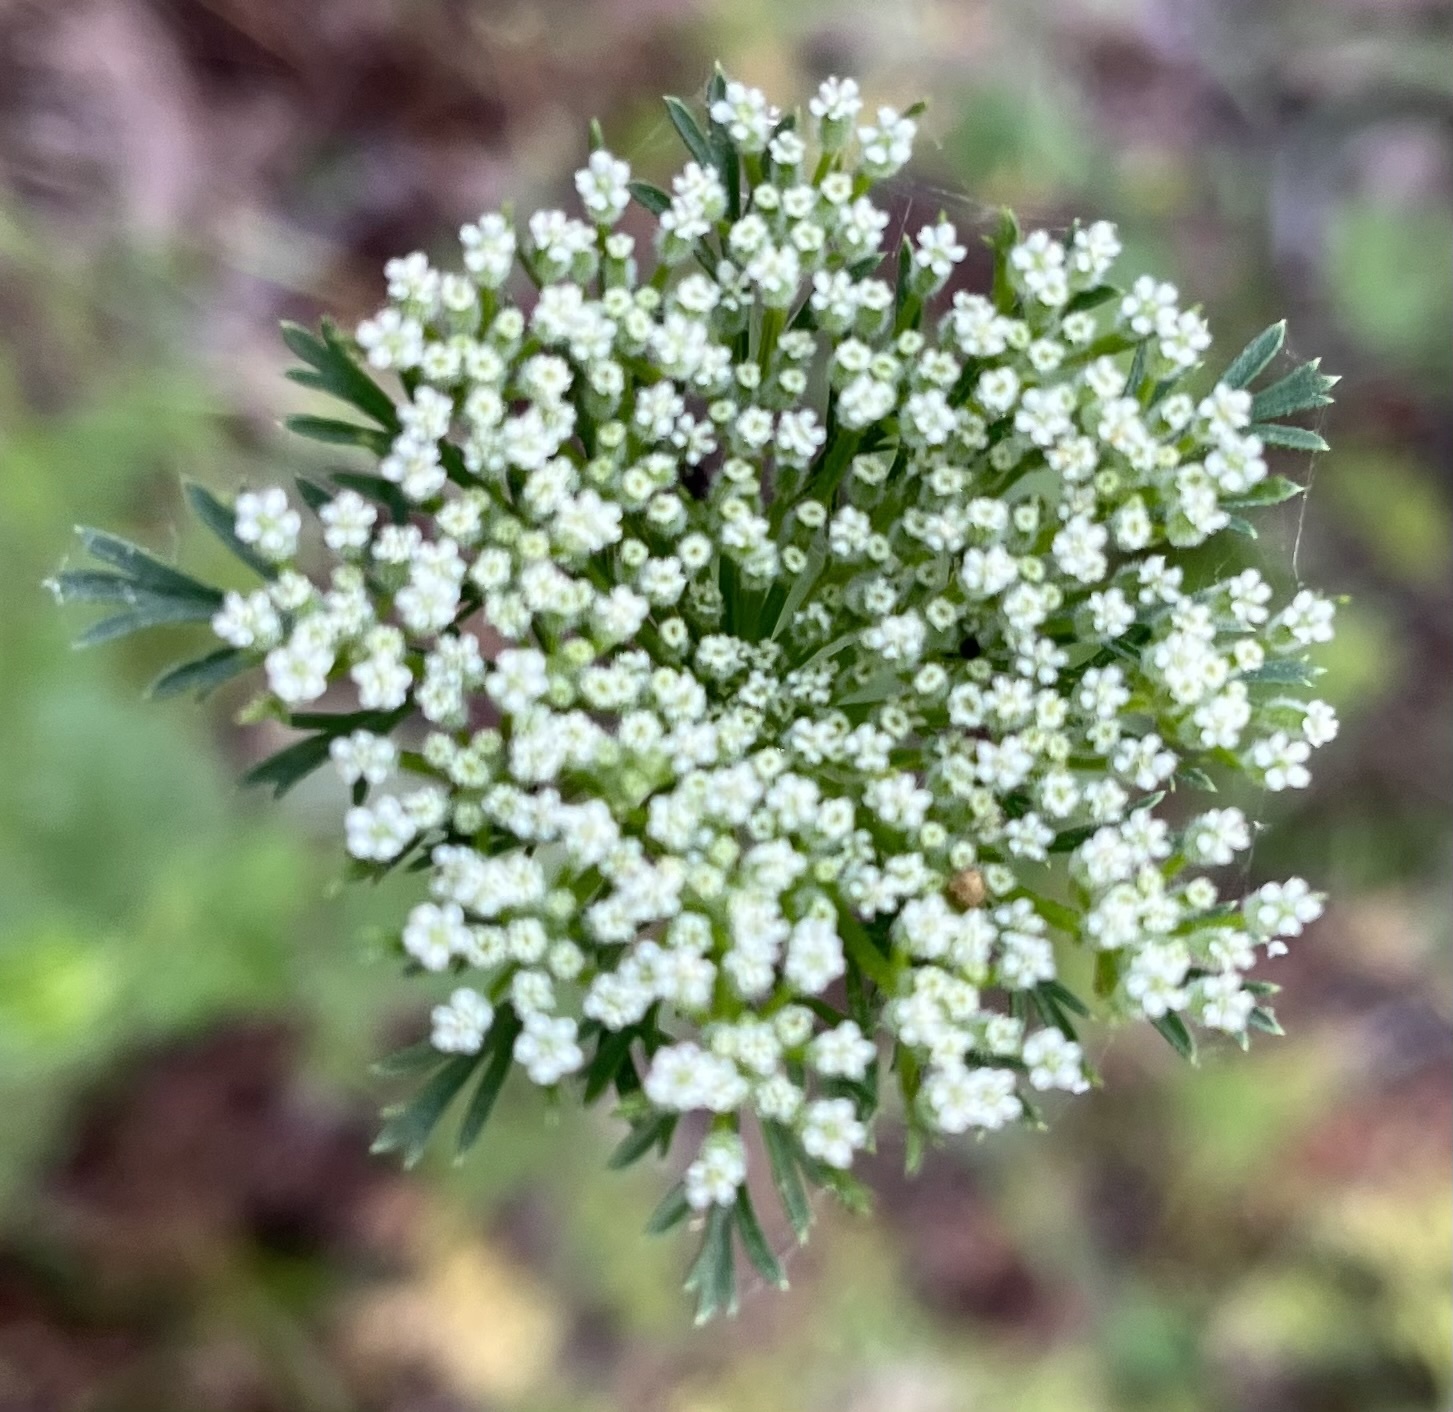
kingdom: Plantae
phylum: Tracheophyta
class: Magnoliopsida
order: Apiales
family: Apiaceae
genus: Daucus
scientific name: Daucus pusillus
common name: Southwest wild carrot
